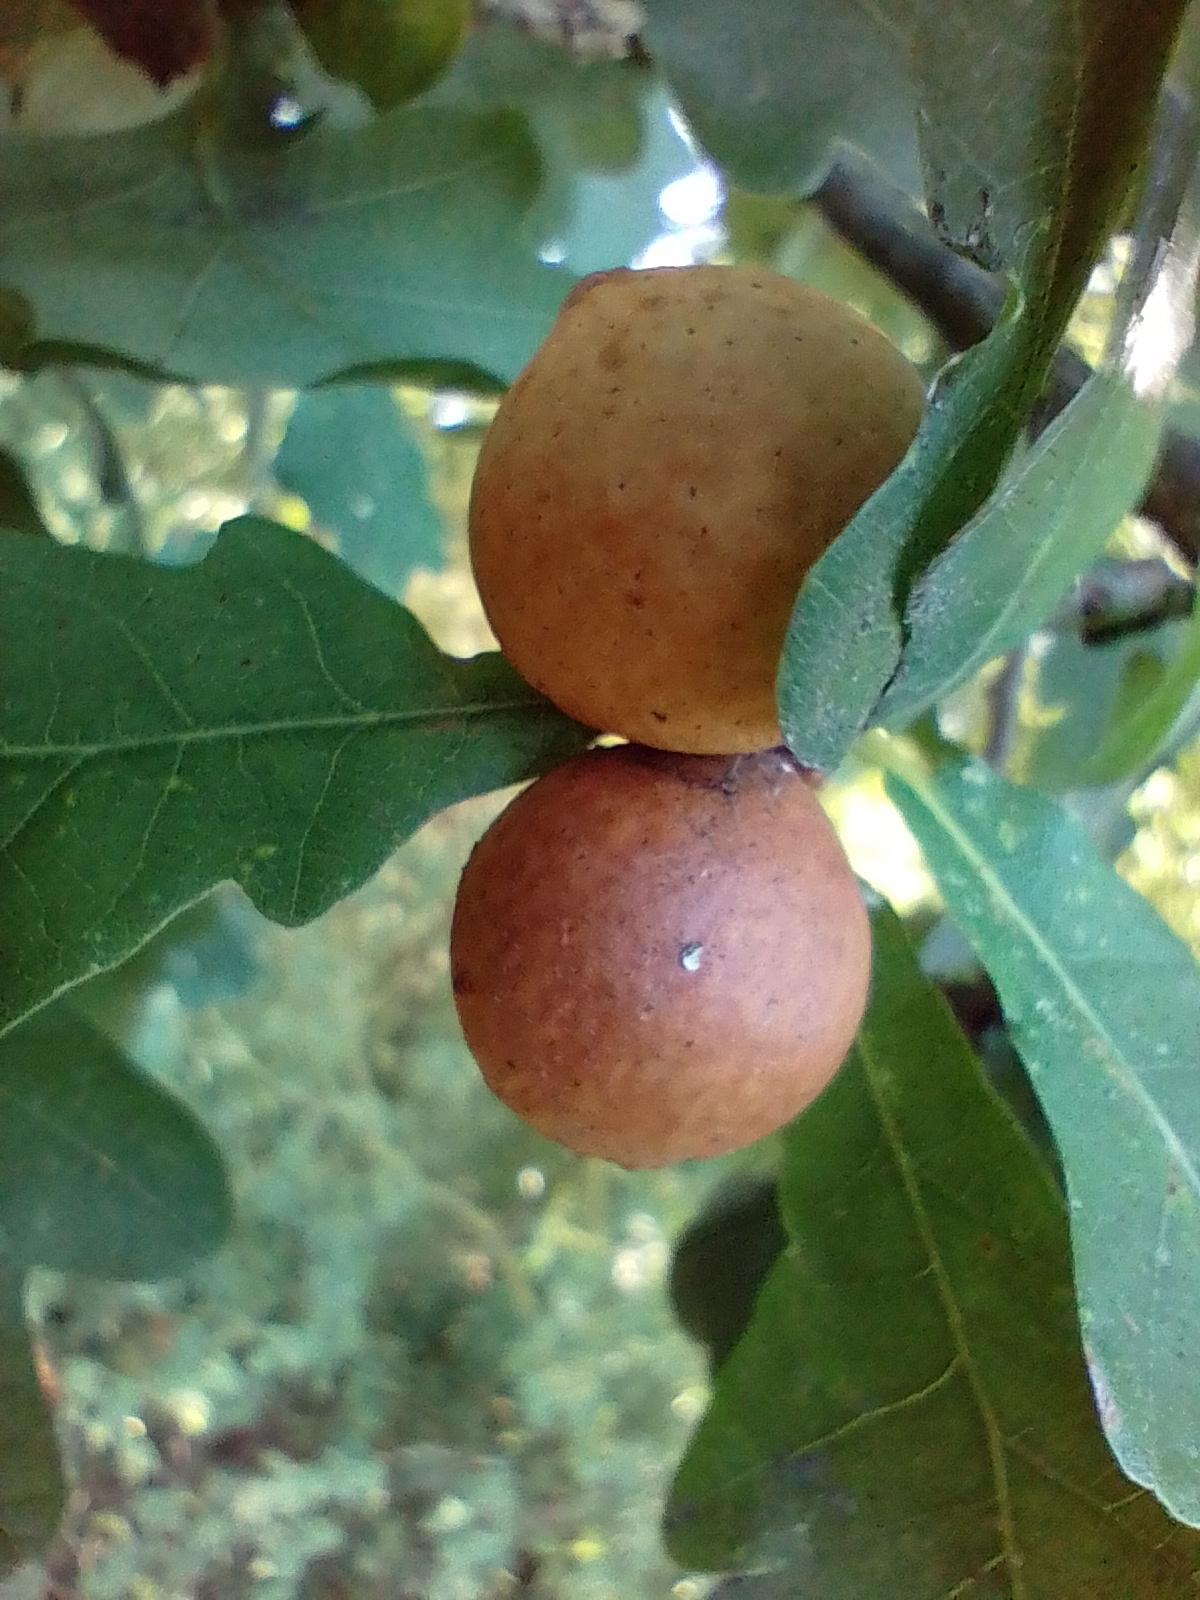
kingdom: Animalia
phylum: Arthropoda
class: Insecta
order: Hymenoptera
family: Cynipidae
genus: Andricus
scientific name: Andricus kollari
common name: Marble gall
